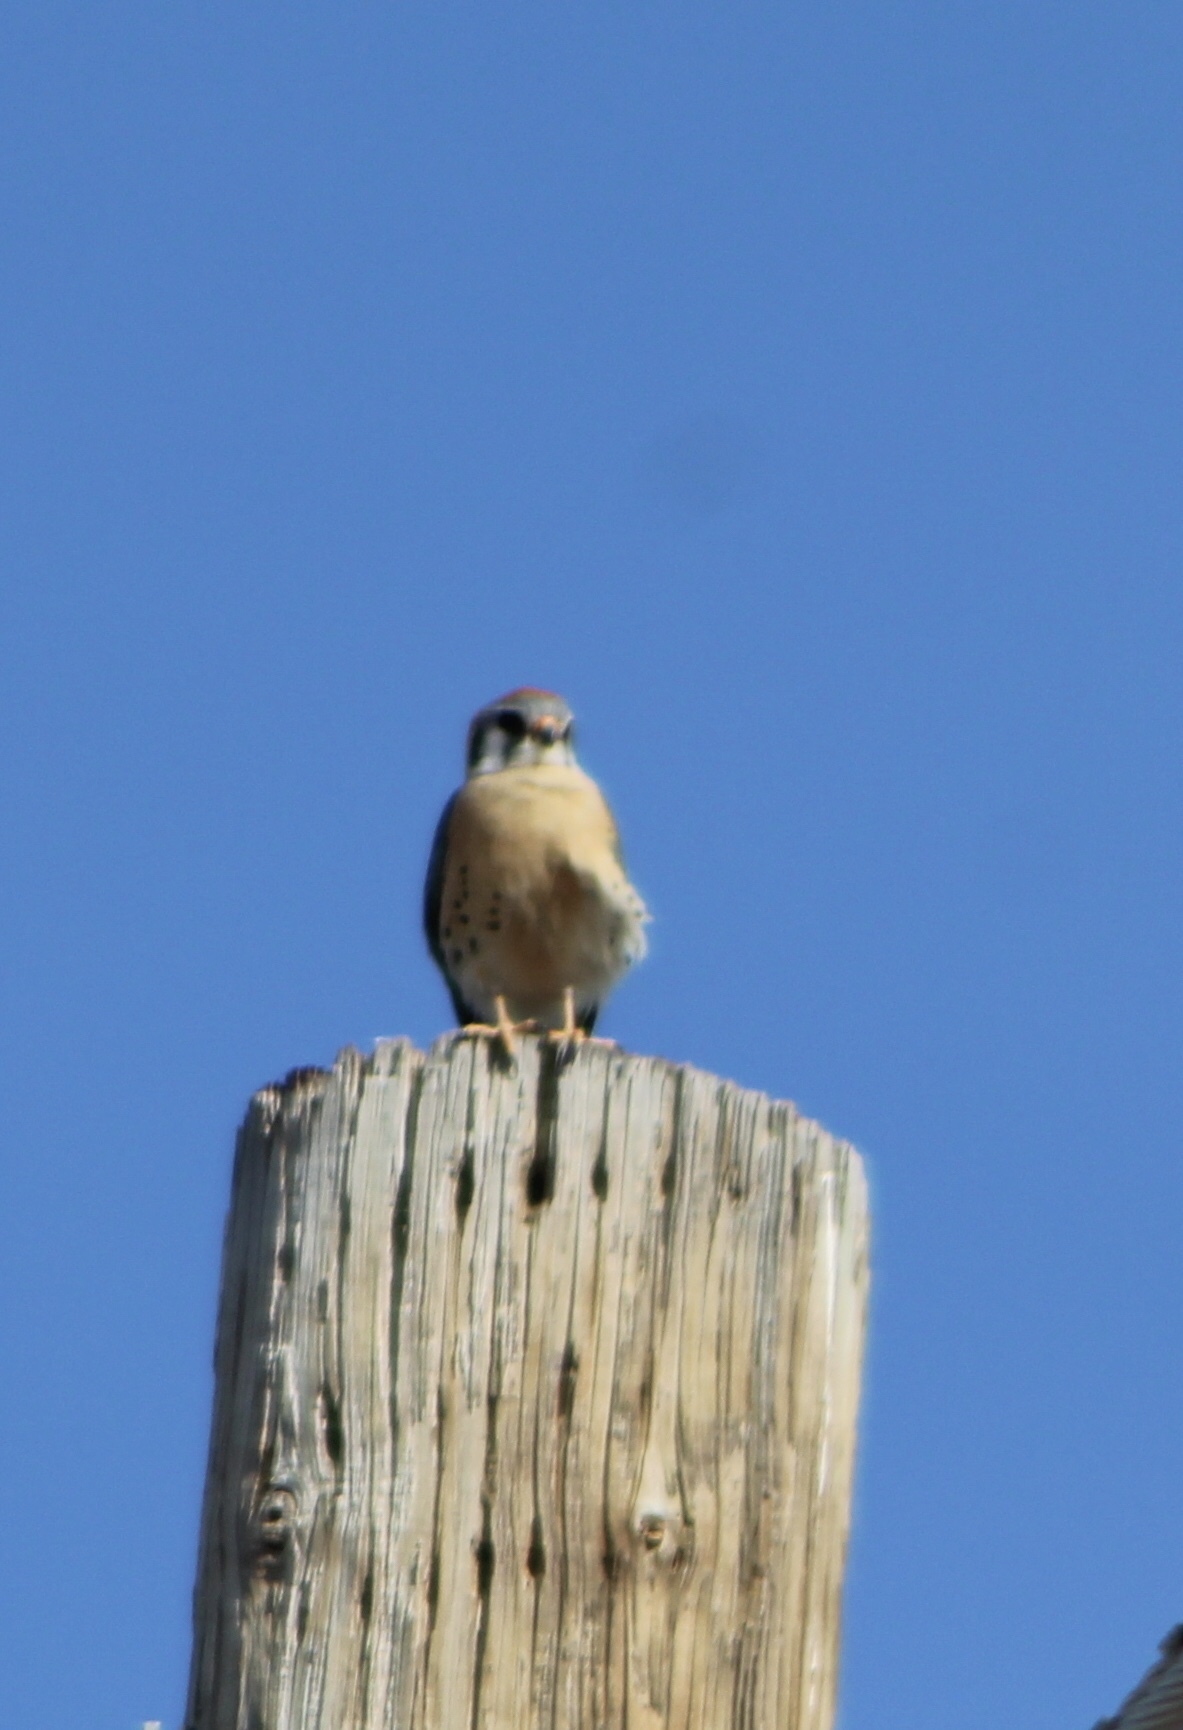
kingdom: Animalia
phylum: Chordata
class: Aves
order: Falconiformes
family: Falconidae
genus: Falco
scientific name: Falco sparverius
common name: American kestrel
